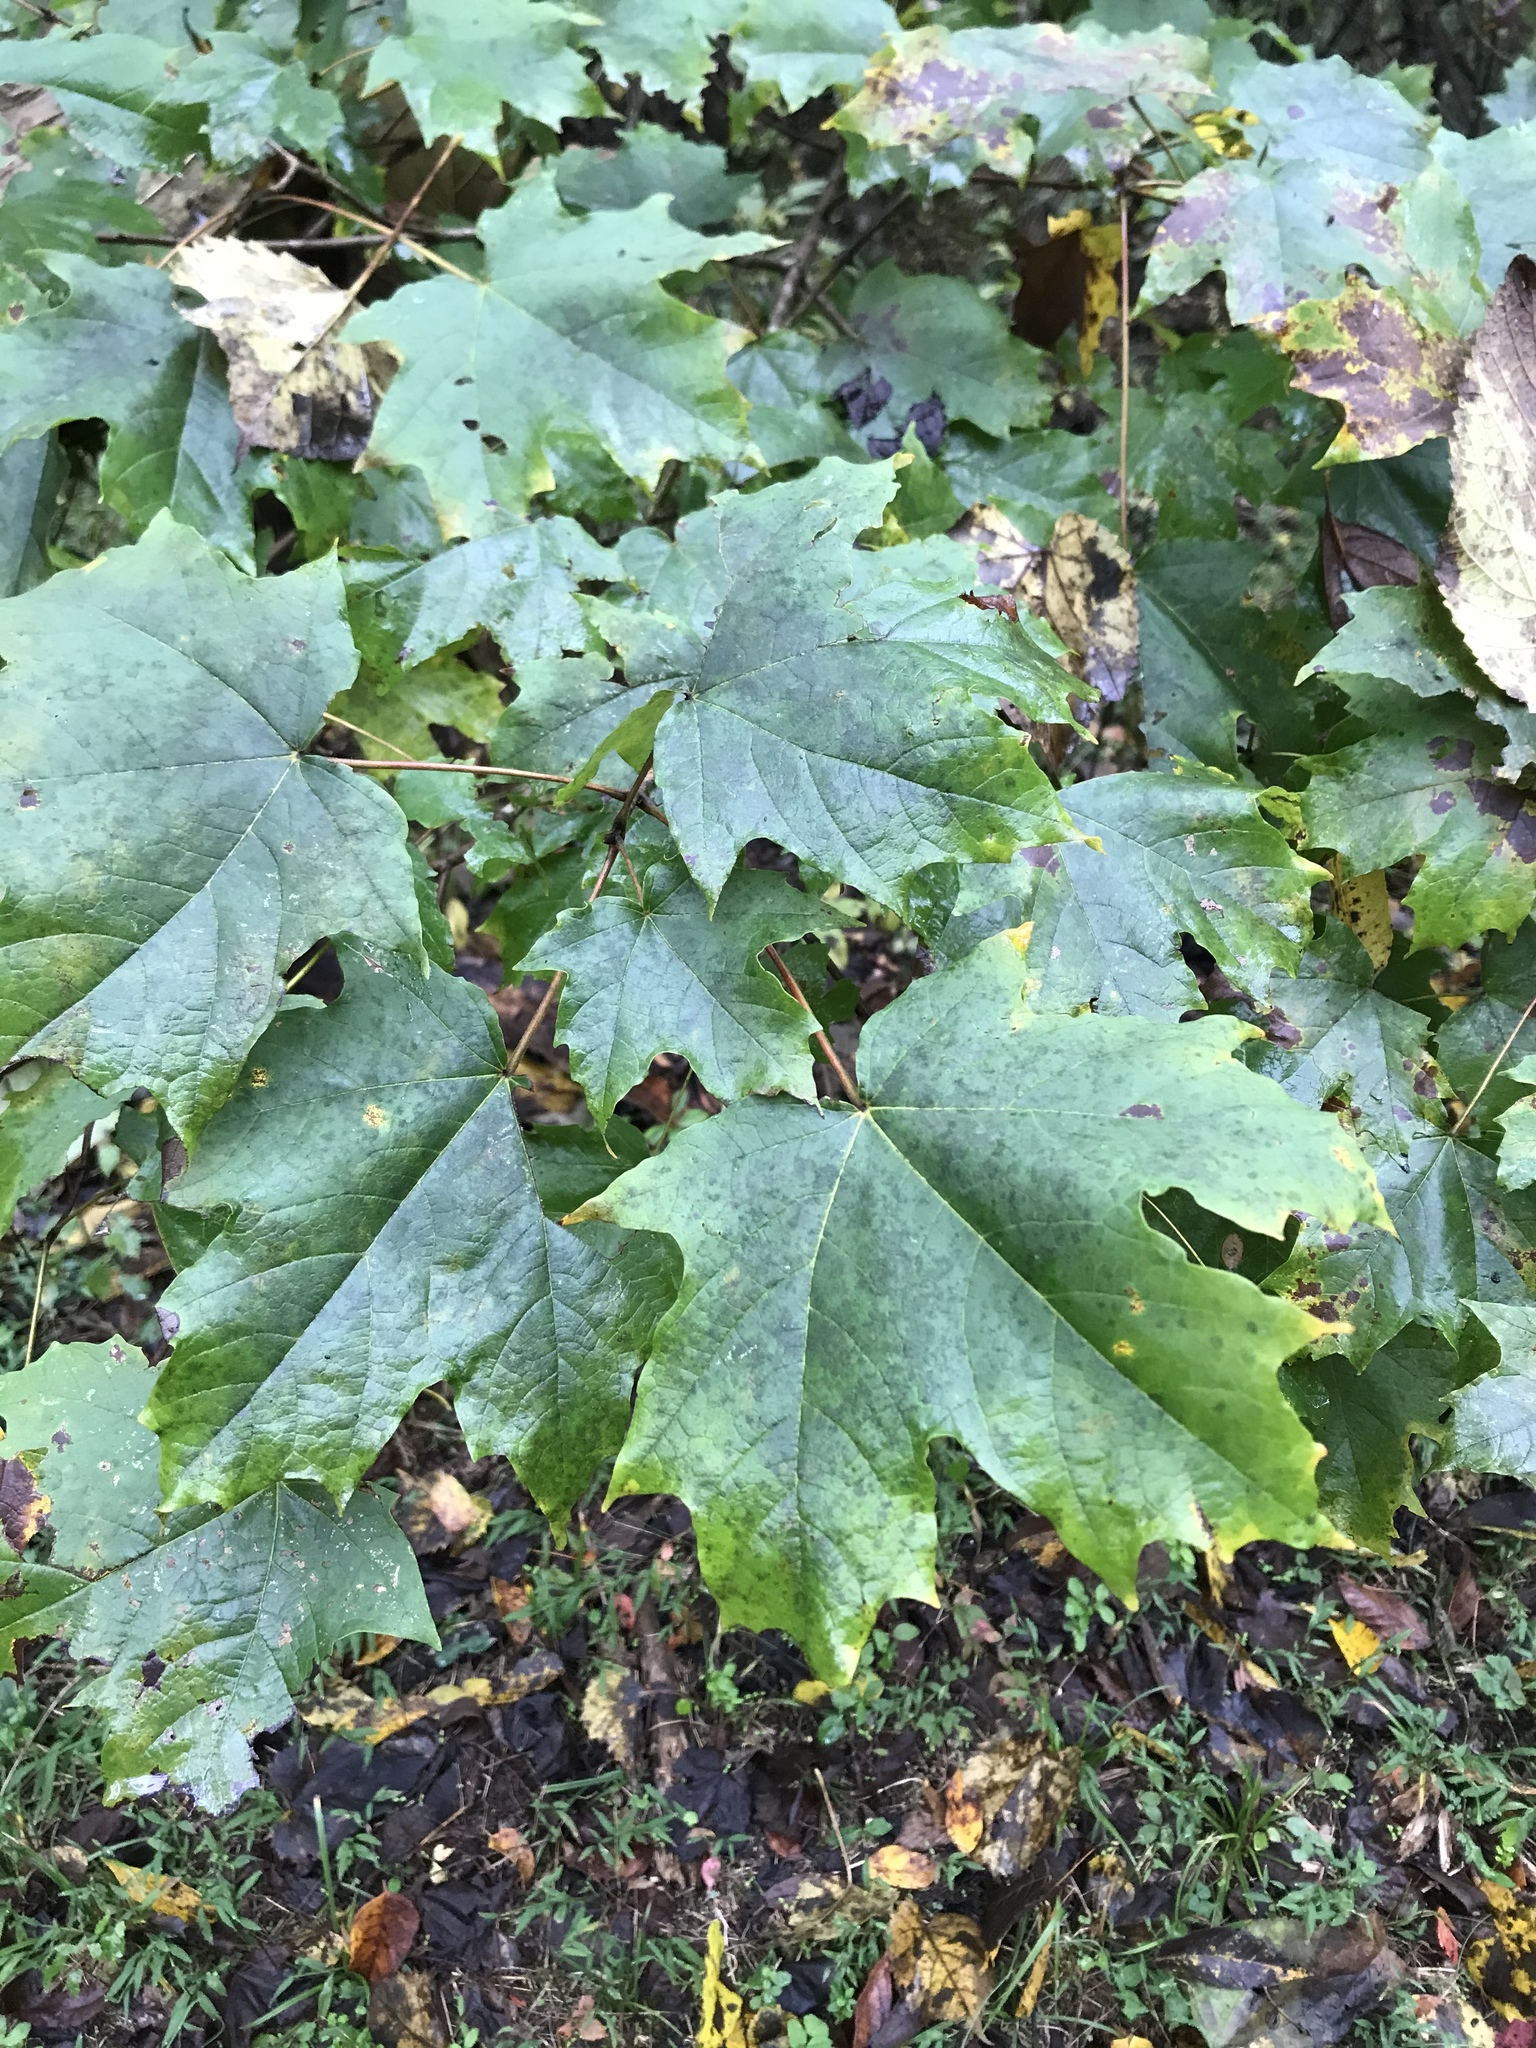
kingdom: Plantae
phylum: Tracheophyta
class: Magnoliopsida
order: Sapindales
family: Sapindaceae
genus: Acer
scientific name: Acer saccharum
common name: Sugar maple
